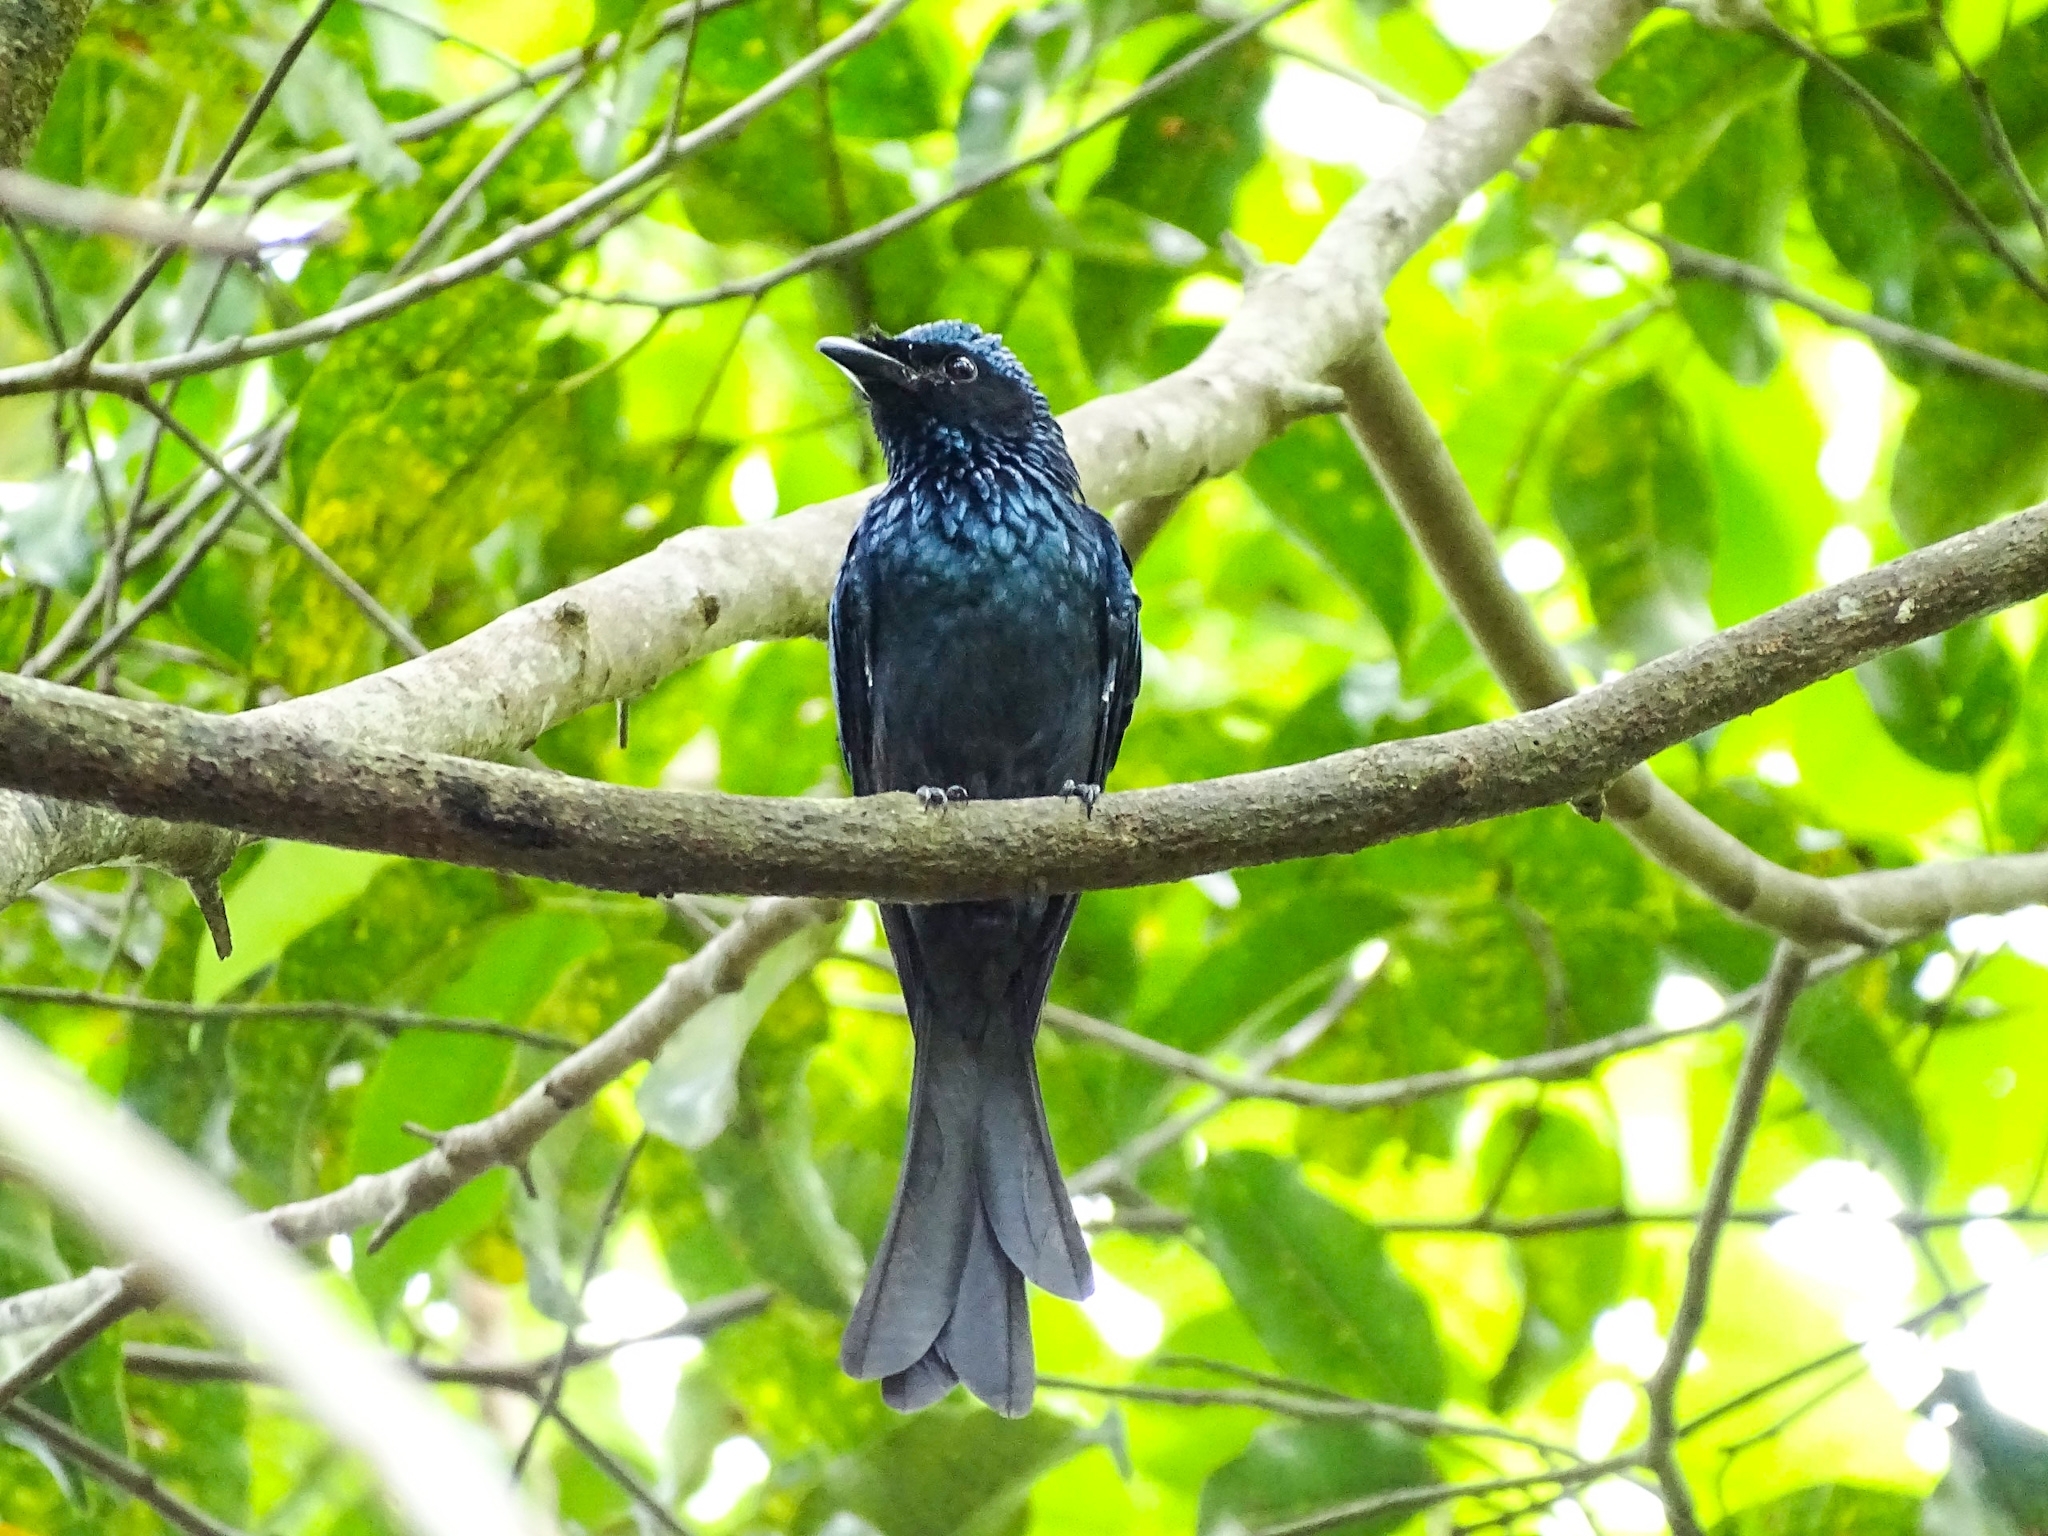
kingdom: Animalia
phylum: Chordata
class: Aves
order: Passeriformes
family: Dicruridae
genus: Dicrurus
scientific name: Dicrurus aeneus
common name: Bronzed drongo
